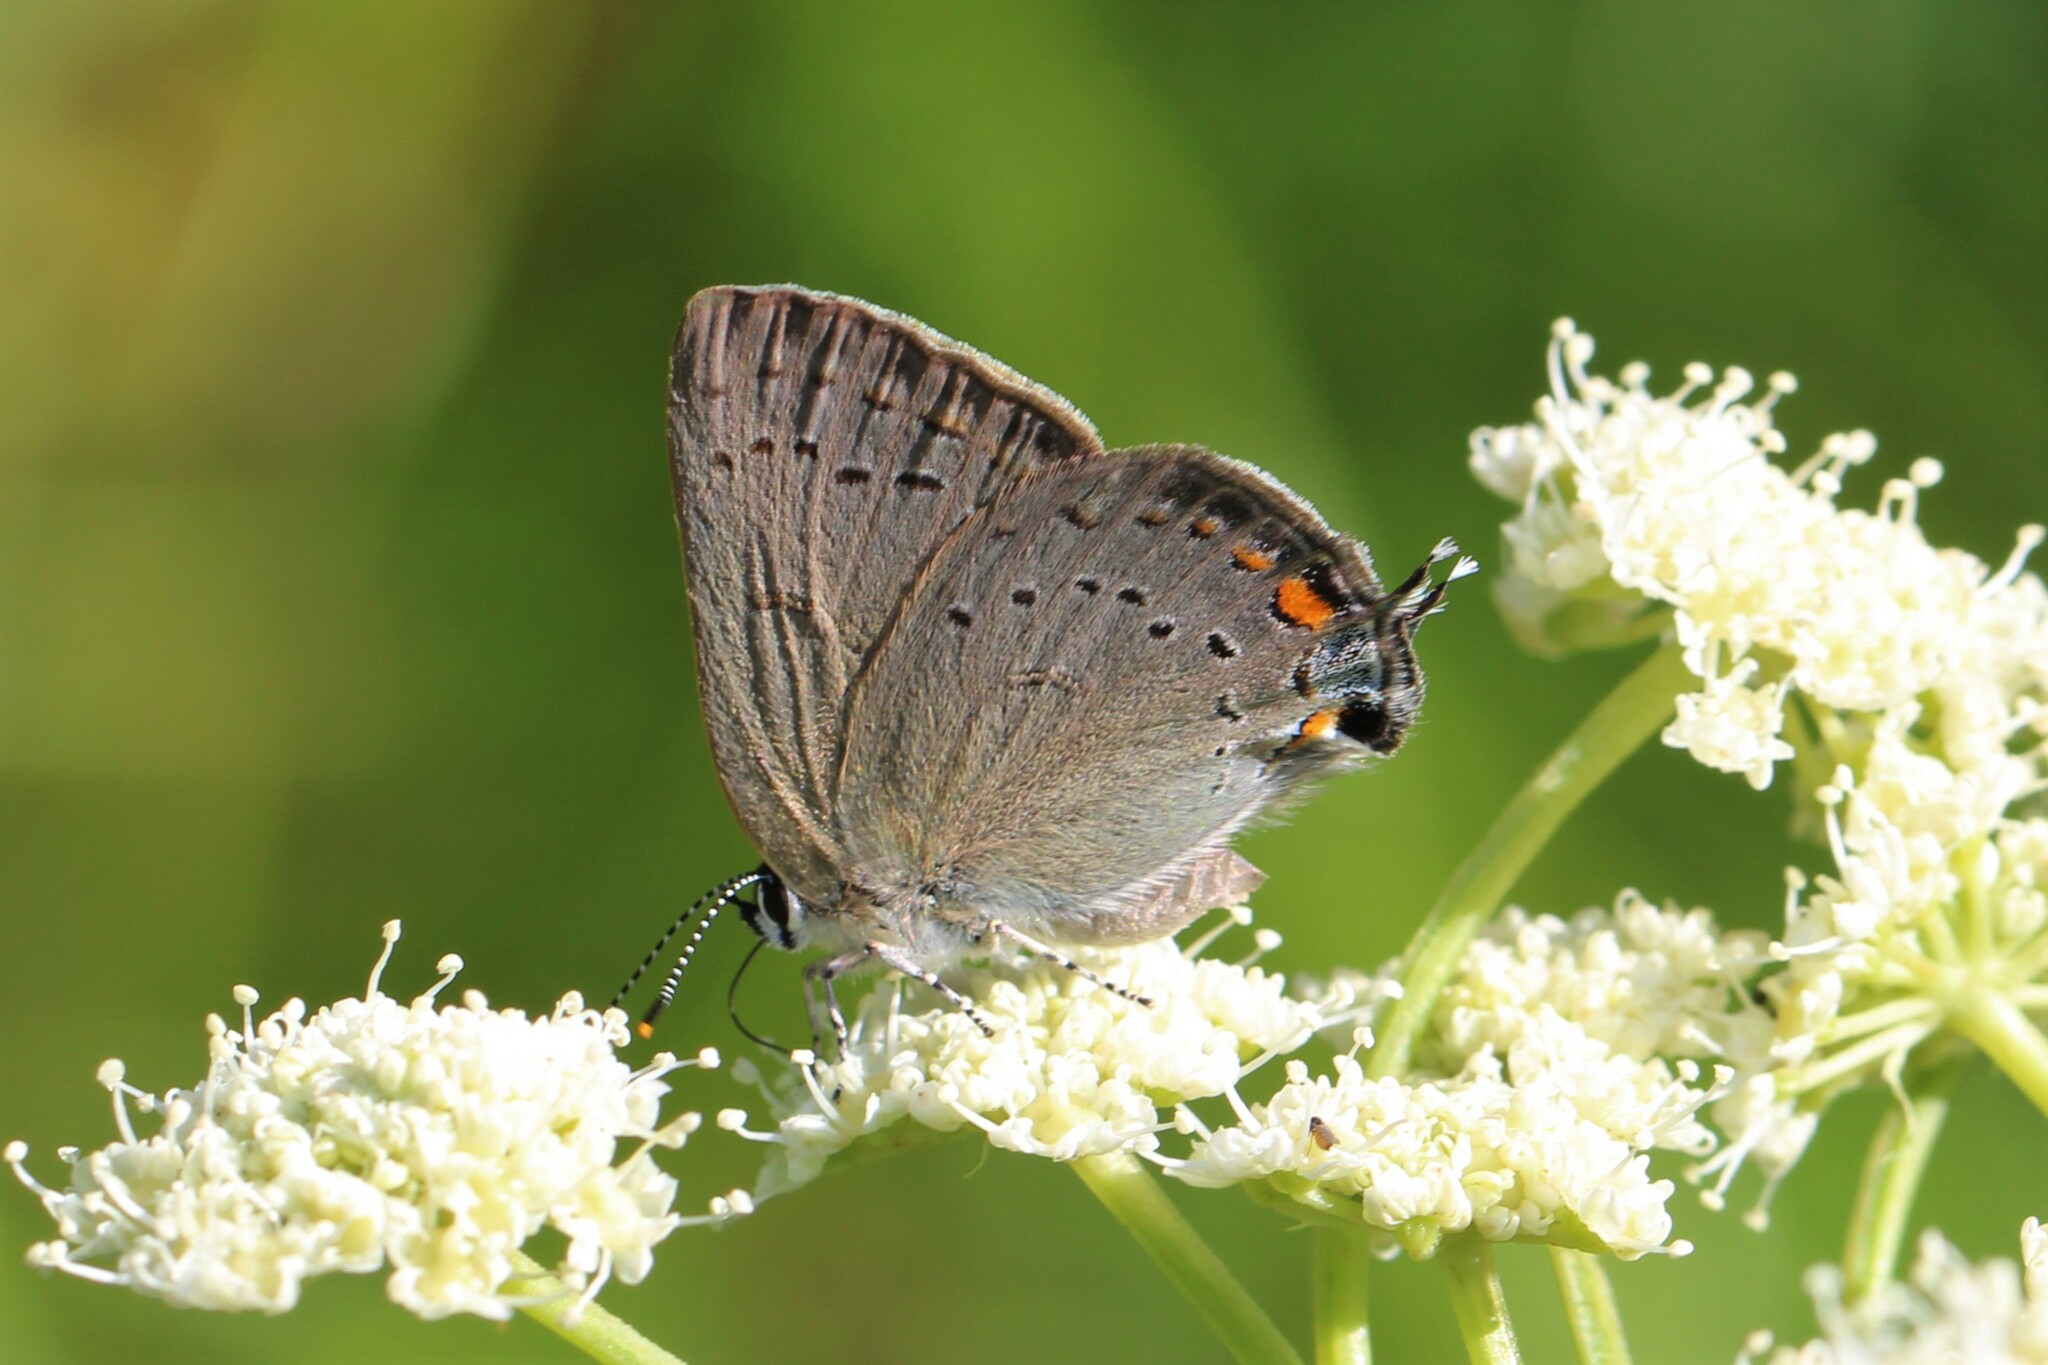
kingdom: Animalia
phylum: Arthropoda
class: Insecta
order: Lepidoptera
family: Lycaenidae
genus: Strymon
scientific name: Strymon sylvinus
